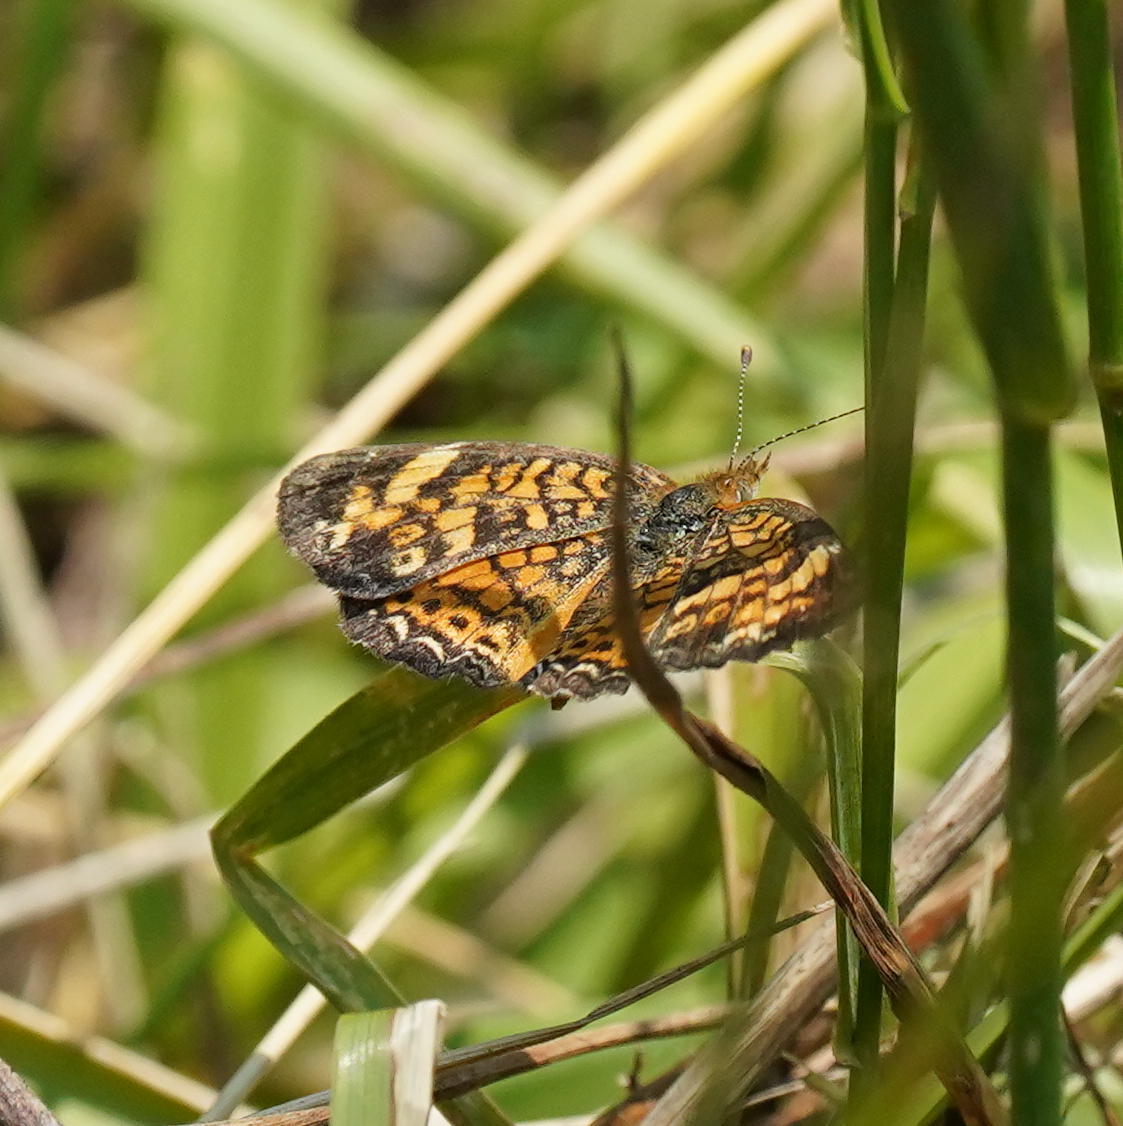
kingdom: Animalia
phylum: Arthropoda
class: Insecta
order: Lepidoptera
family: Nymphalidae
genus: Phyciodes
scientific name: Phyciodes tharos
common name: Pearl crescent
